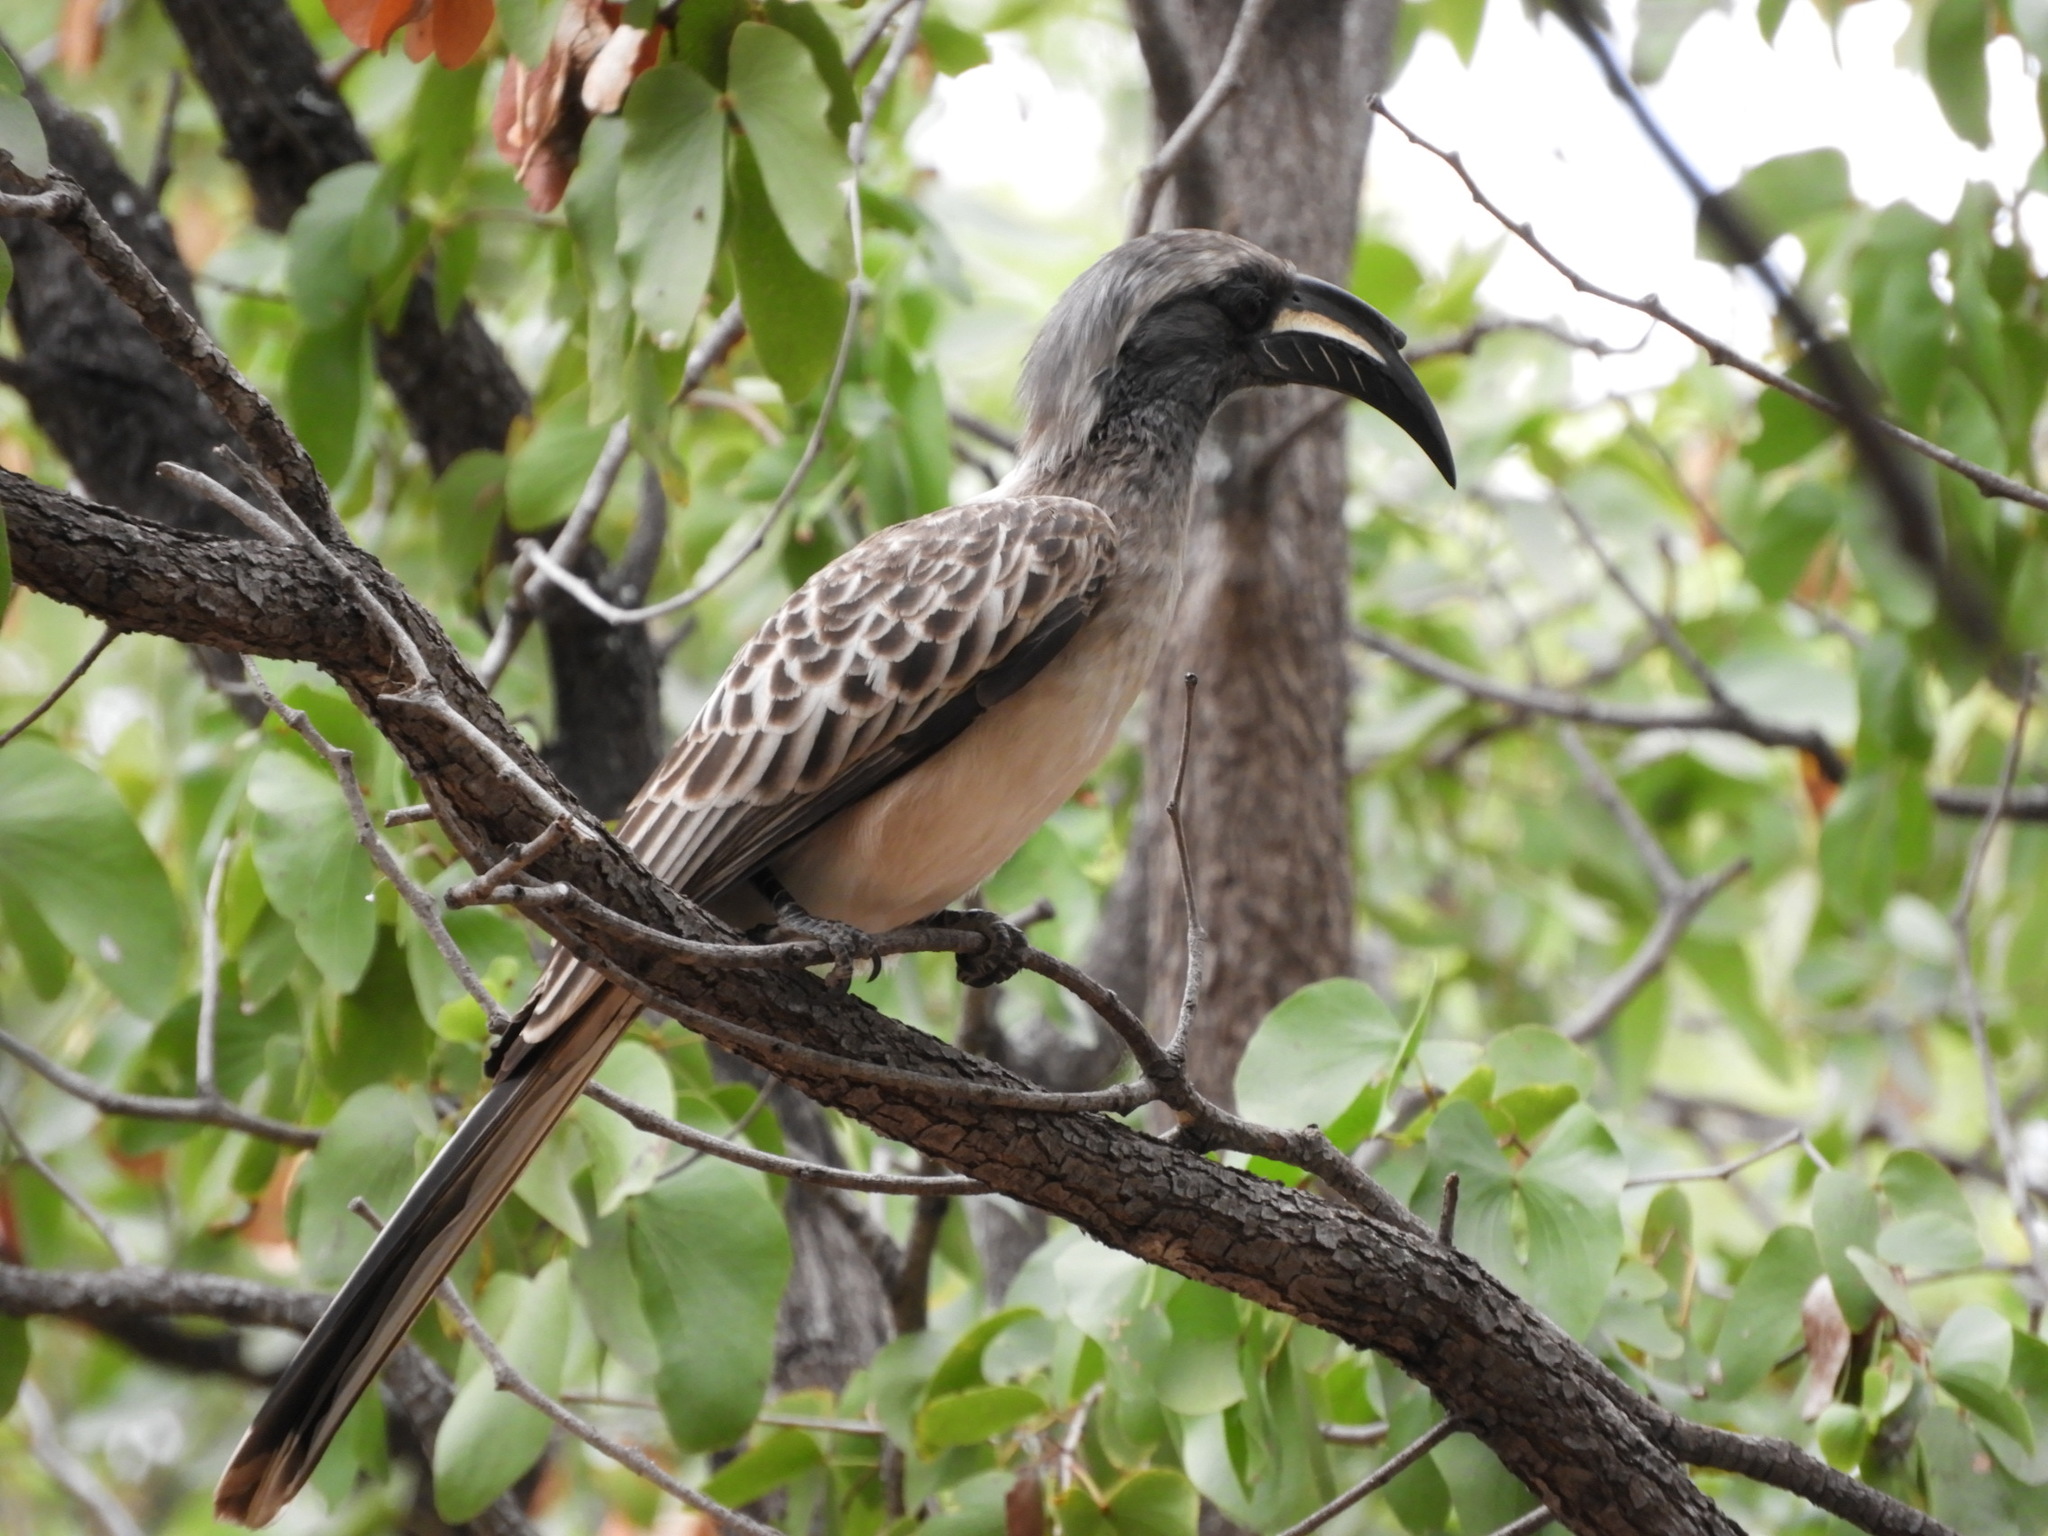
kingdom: Animalia
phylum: Chordata
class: Aves
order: Bucerotiformes
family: Bucerotidae
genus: Lophoceros
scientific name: Lophoceros nasutus
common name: African grey hornbill
